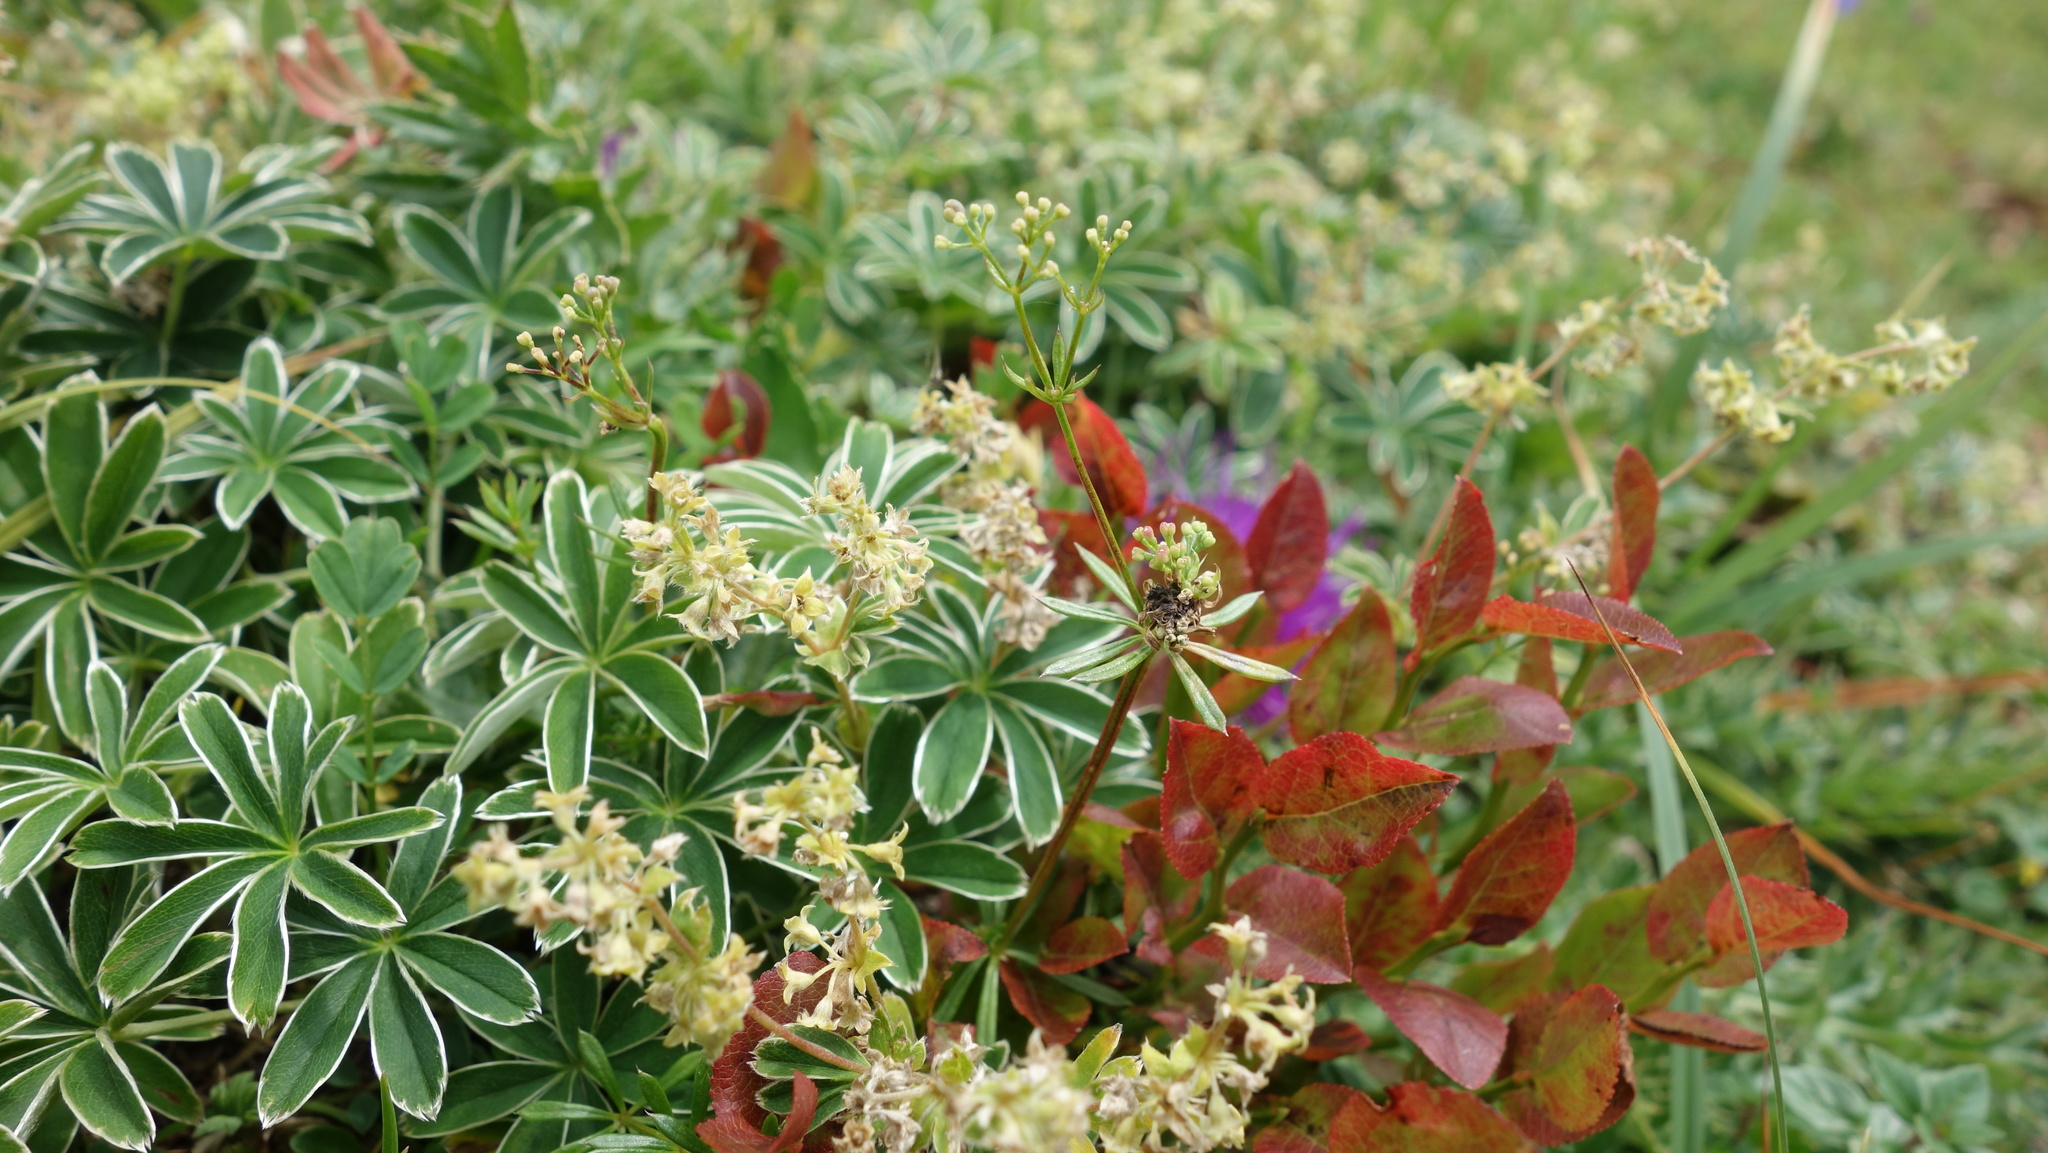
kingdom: Plantae
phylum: Tracheophyta
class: Magnoliopsida
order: Rosales
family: Rosaceae
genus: Alchemilla
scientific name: Alchemilla nitida
